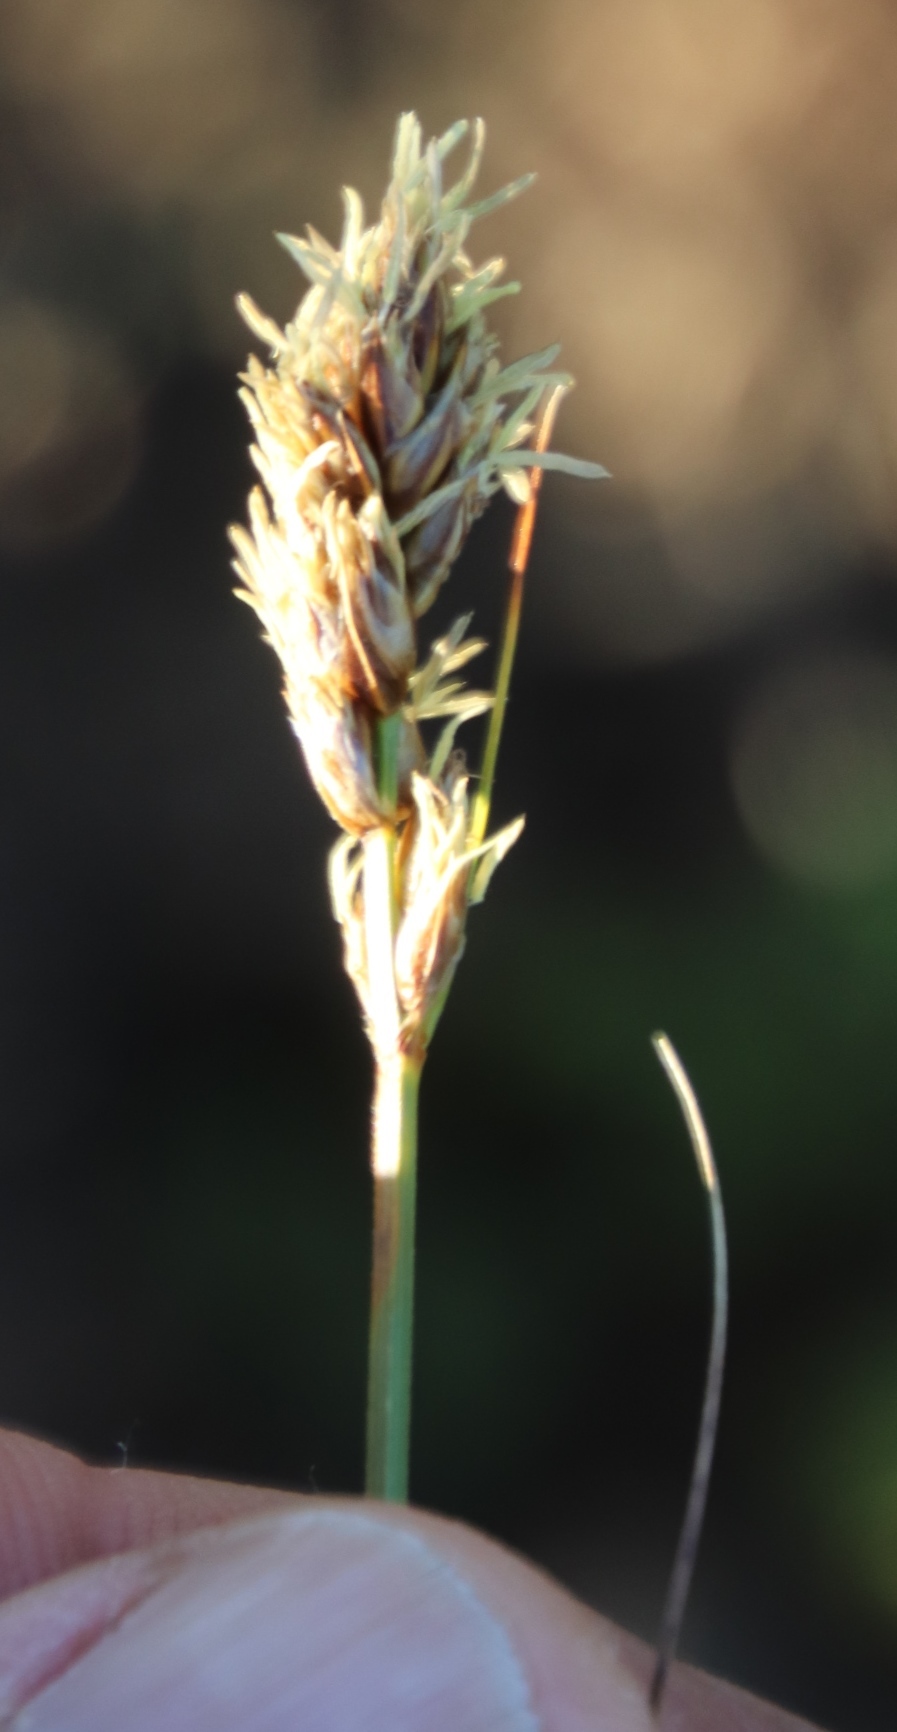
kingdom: Plantae
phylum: Tracheophyta
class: Liliopsida
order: Poales
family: Cyperaceae
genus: Carex
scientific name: Carex divisa
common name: Divided sedge
